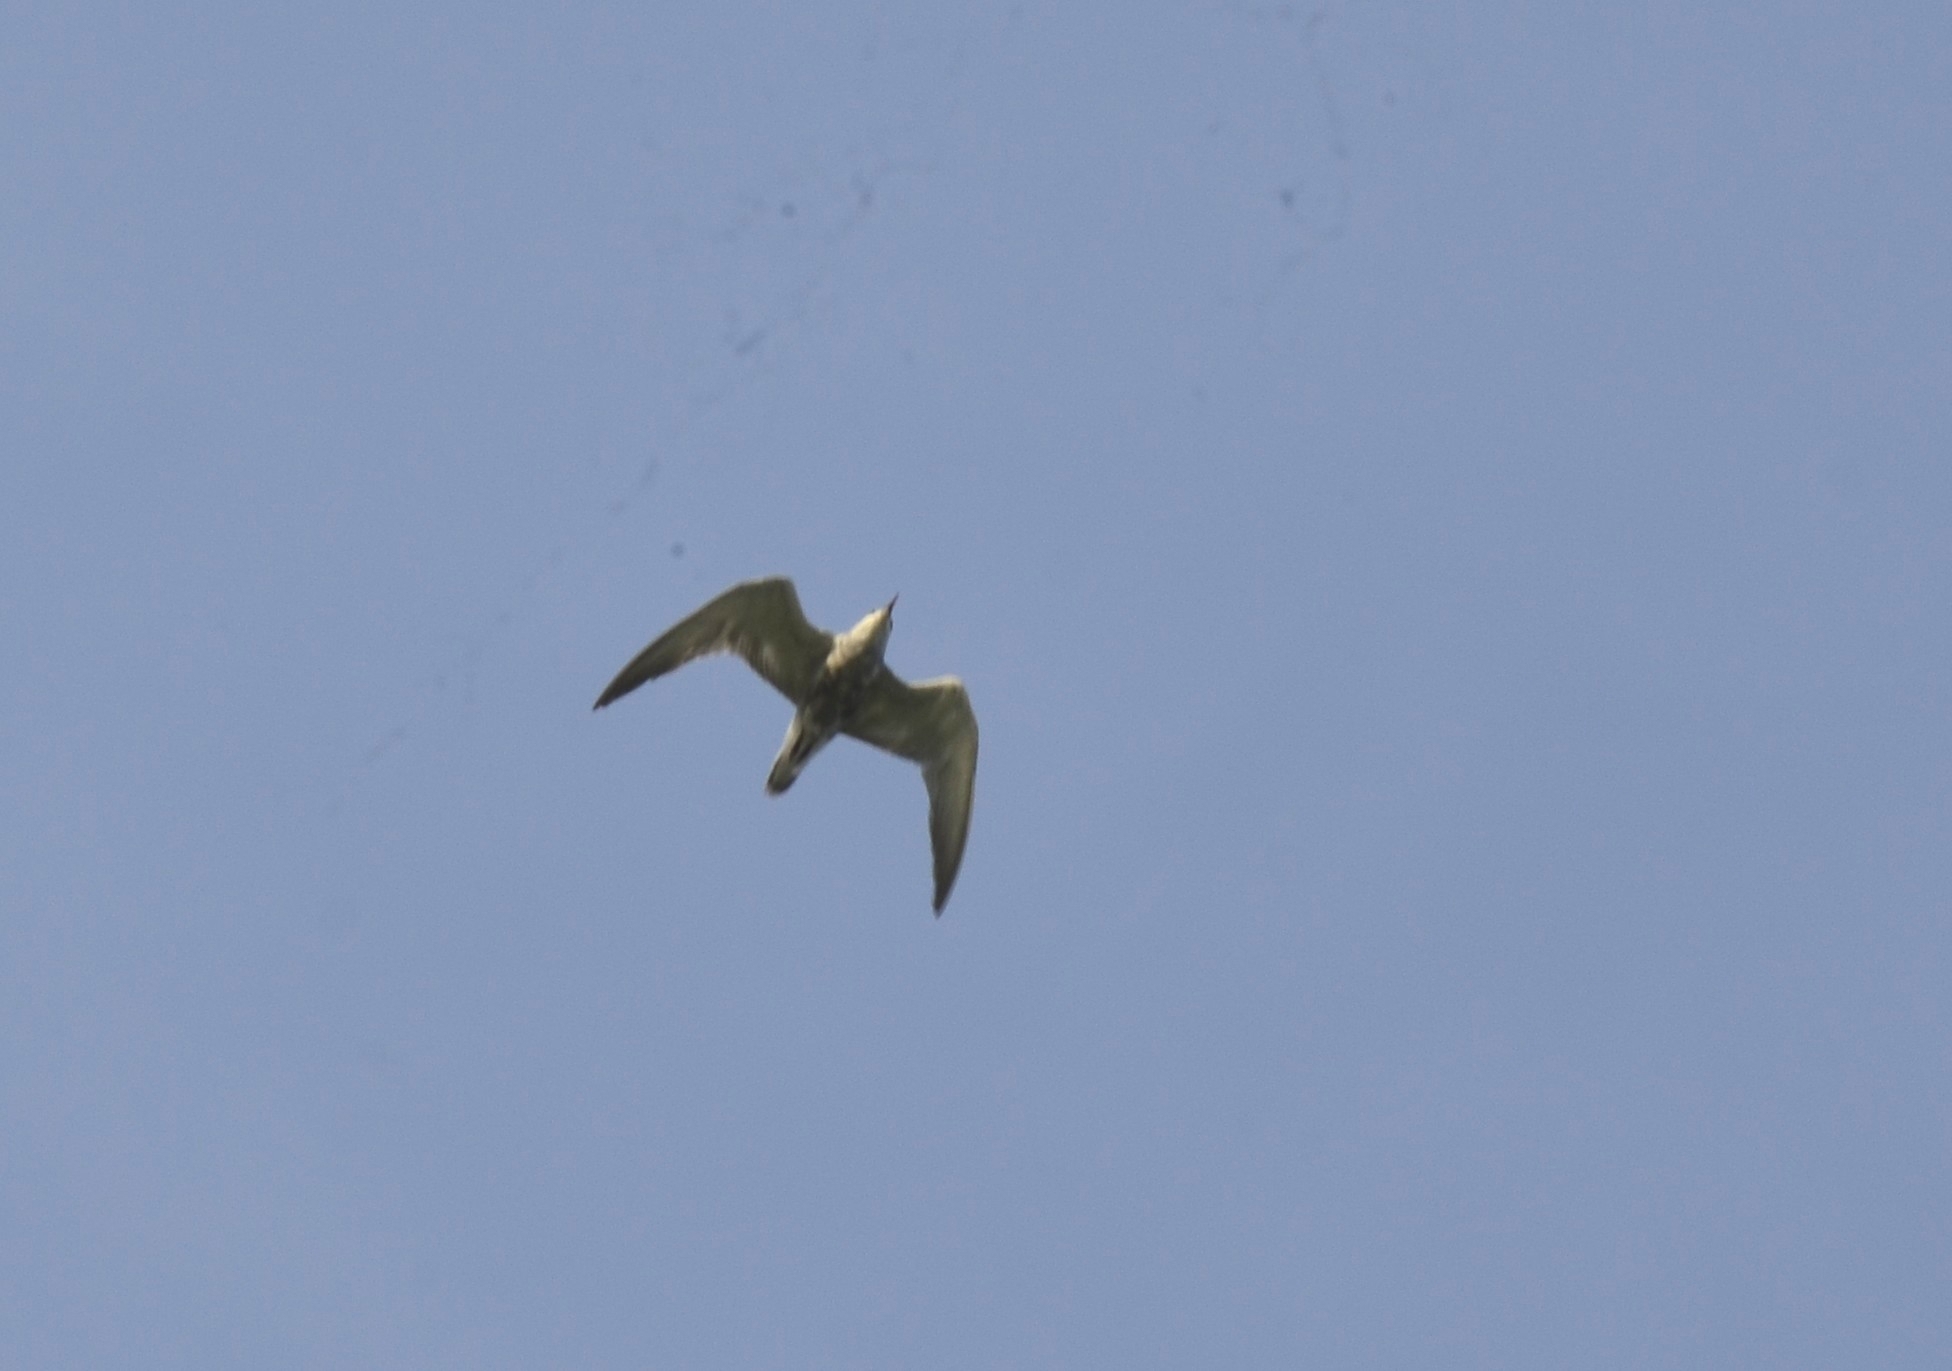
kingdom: Animalia
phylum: Chordata
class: Aves
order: Charadriiformes
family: Laridae
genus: Chlidonias
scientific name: Chlidonias hybrida
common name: Whiskered tern
